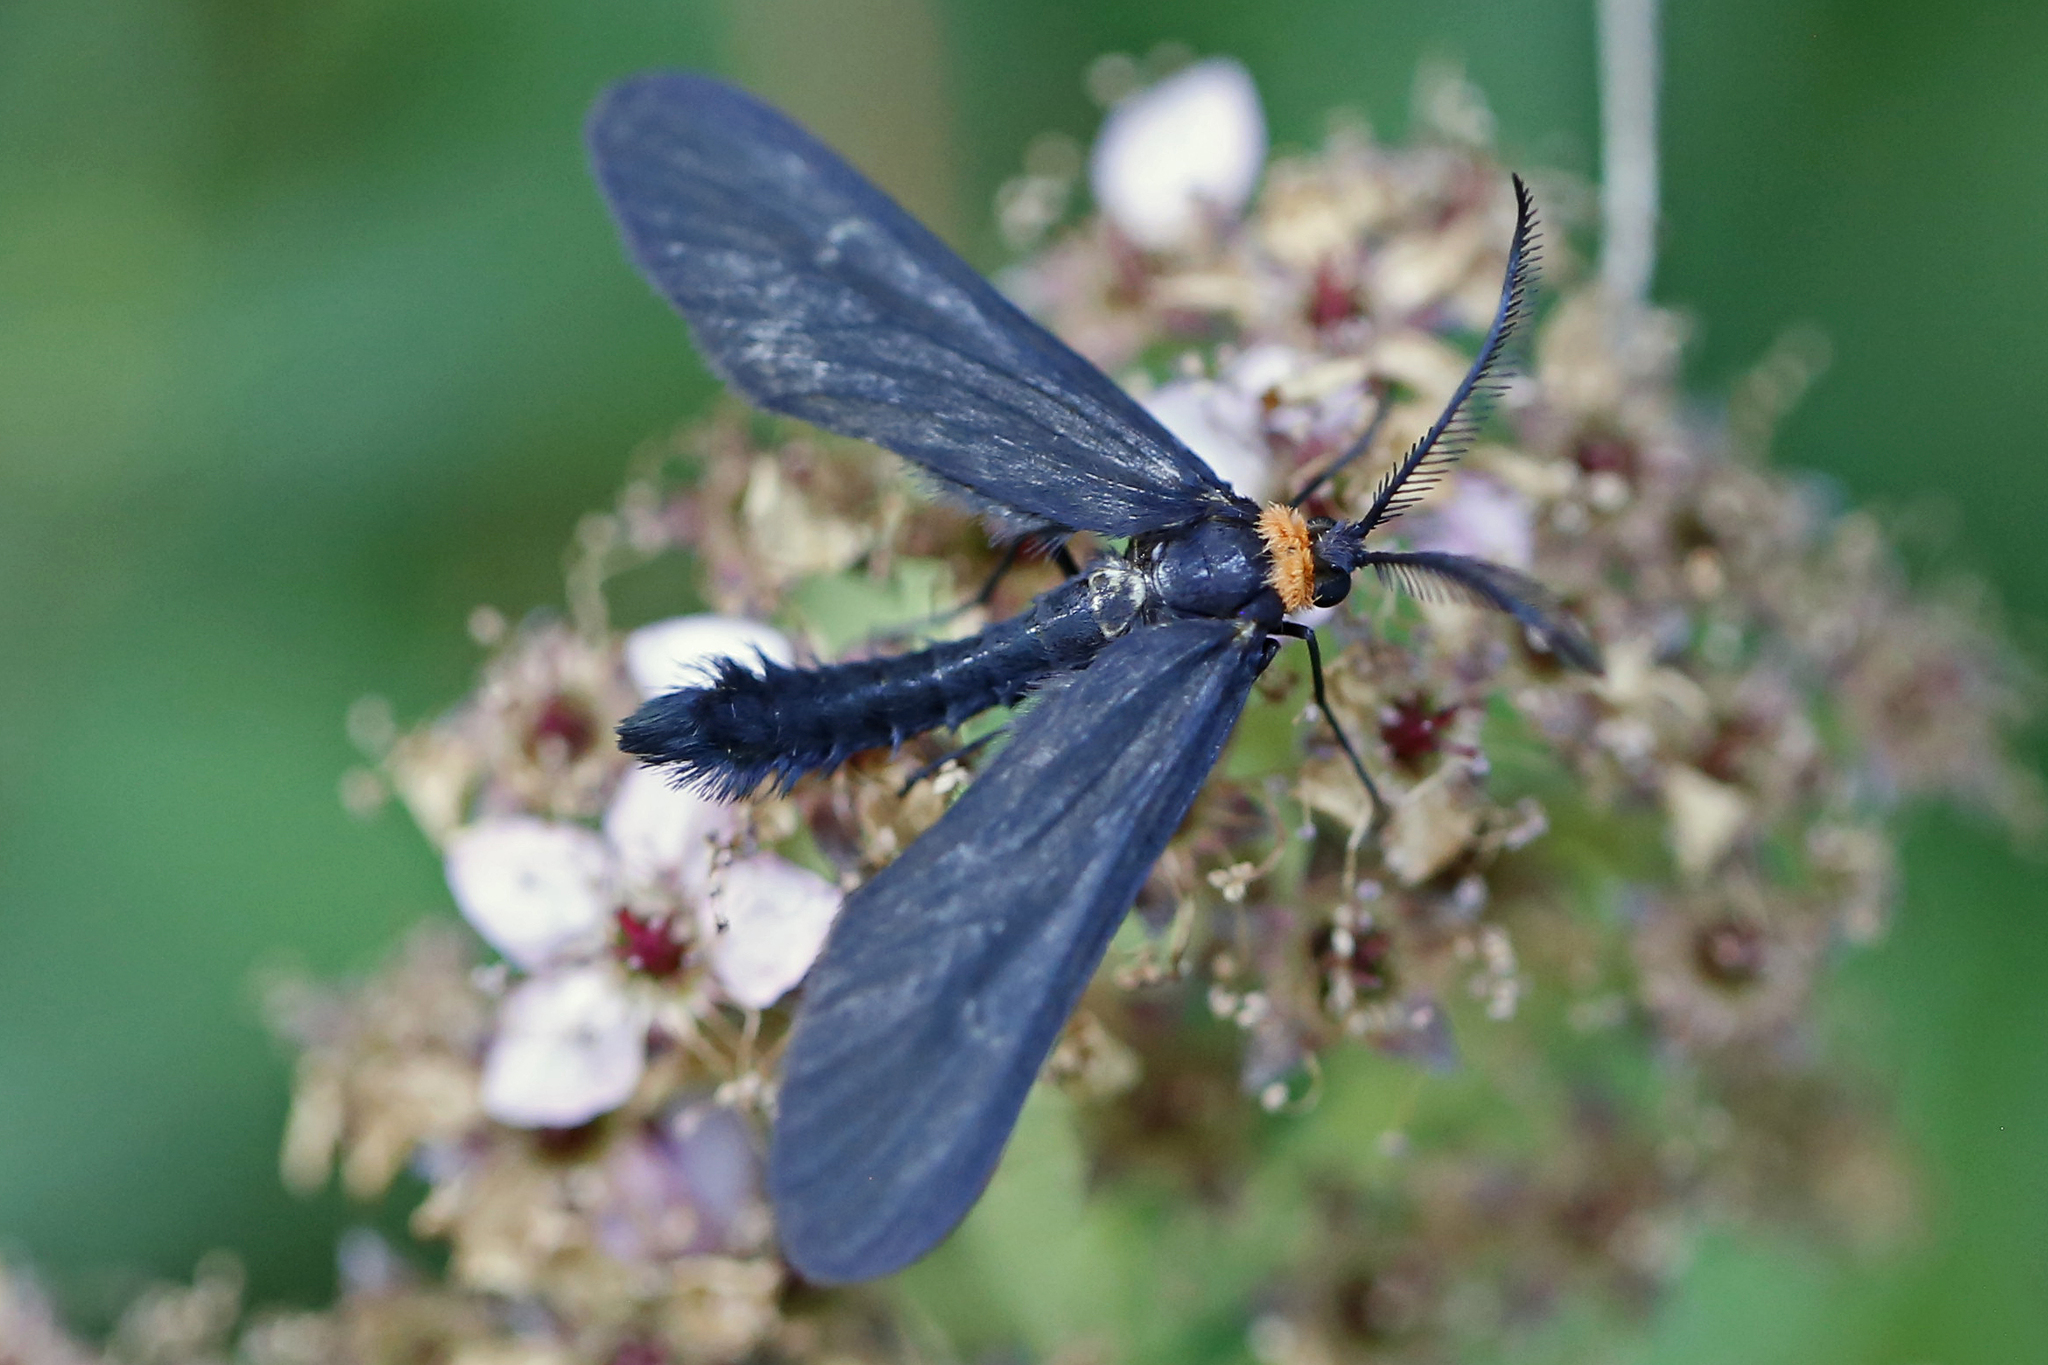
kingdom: Animalia
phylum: Arthropoda
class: Insecta
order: Lepidoptera
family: Zygaenidae
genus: Harrisina
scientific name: Harrisina americana
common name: Grapeleaf skeletonizer moth
